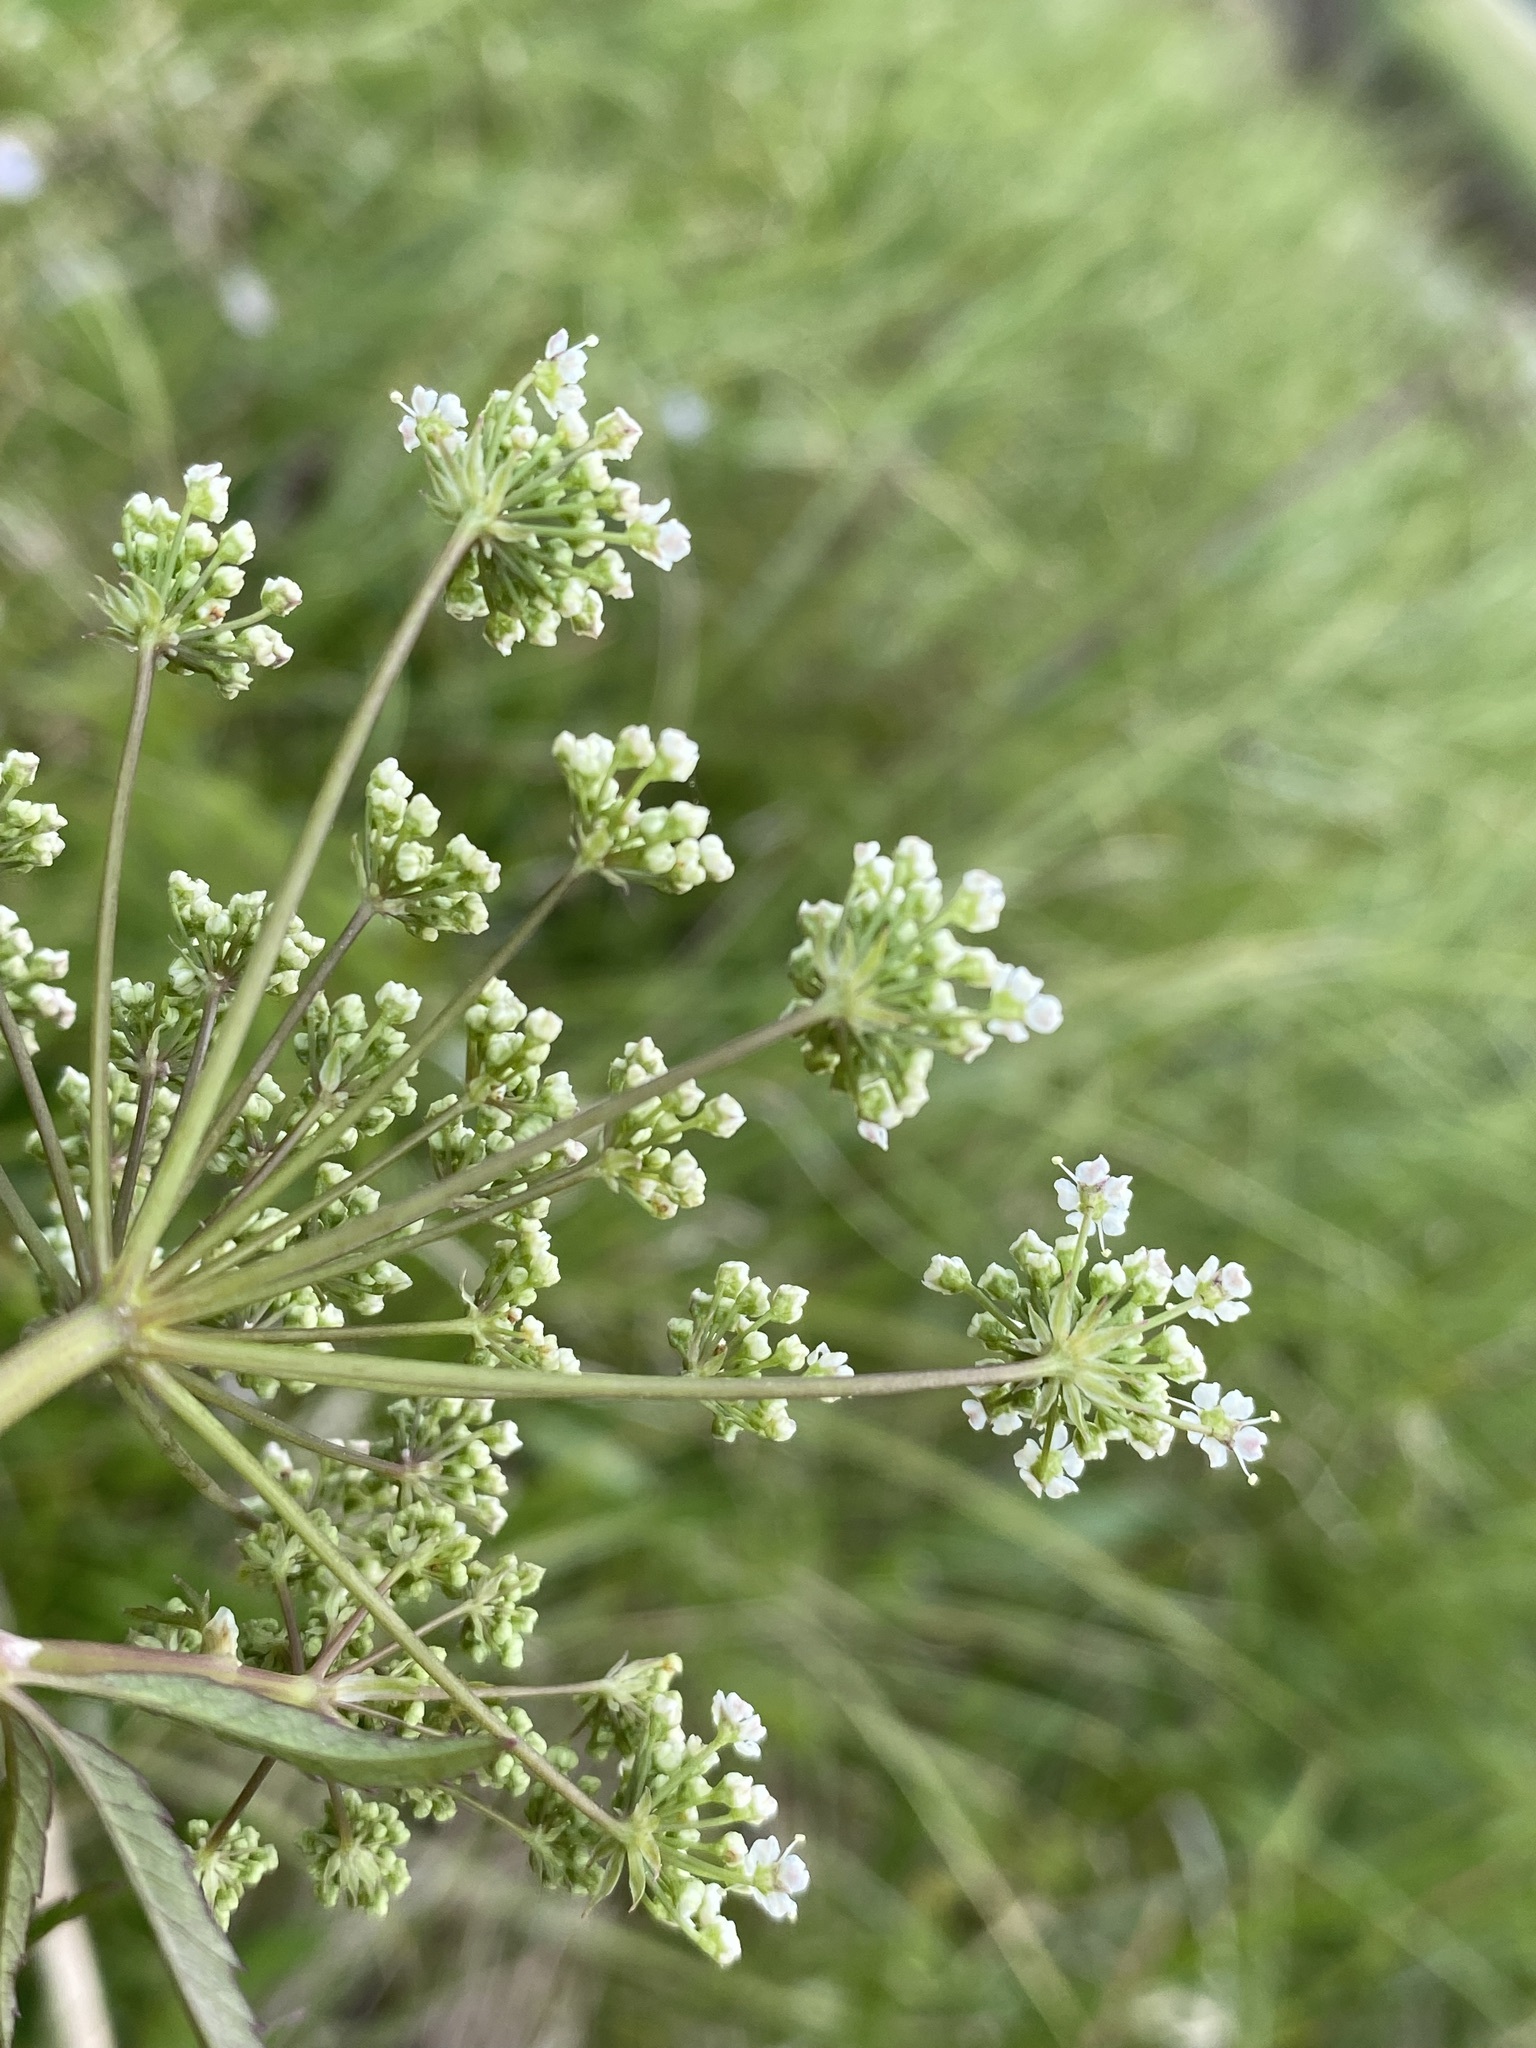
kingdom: Plantae
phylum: Tracheophyta
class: Magnoliopsida
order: Apiales
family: Apiaceae
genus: Cicuta
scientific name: Cicuta maculata
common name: Spotted cowbane
